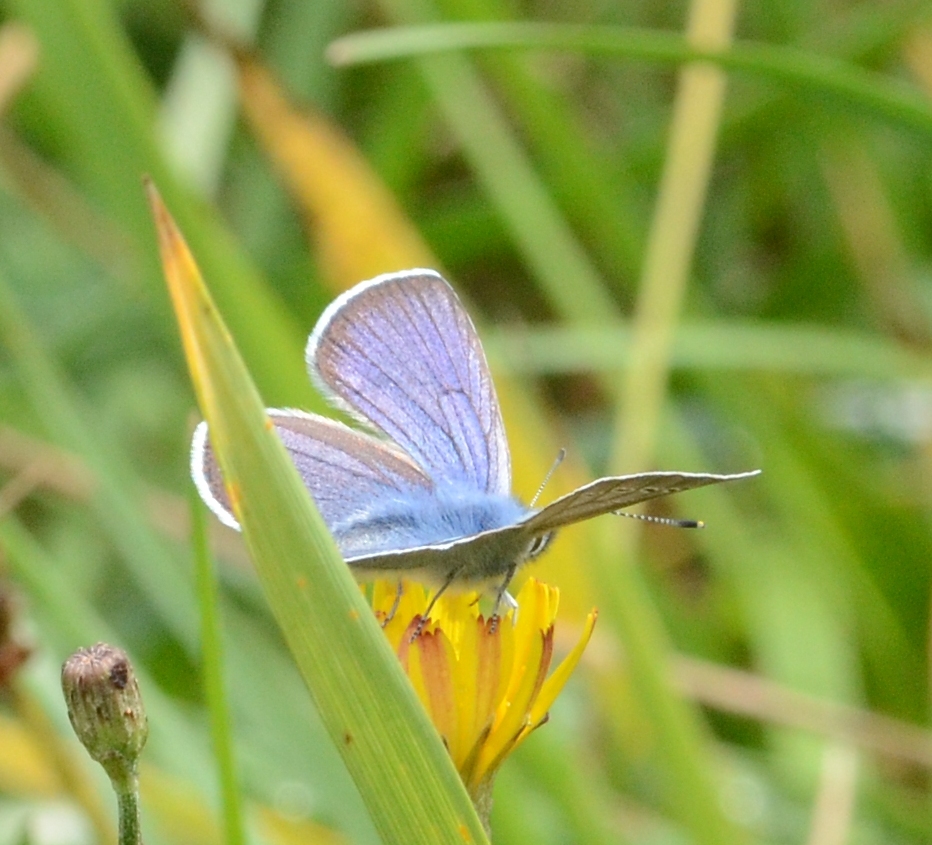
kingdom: Animalia
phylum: Arthropoda
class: Insecta
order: Lepidoptera
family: Lycaenidae
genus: Cyaniris
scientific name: Cyaniris semiargus
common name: Mazarine blue
